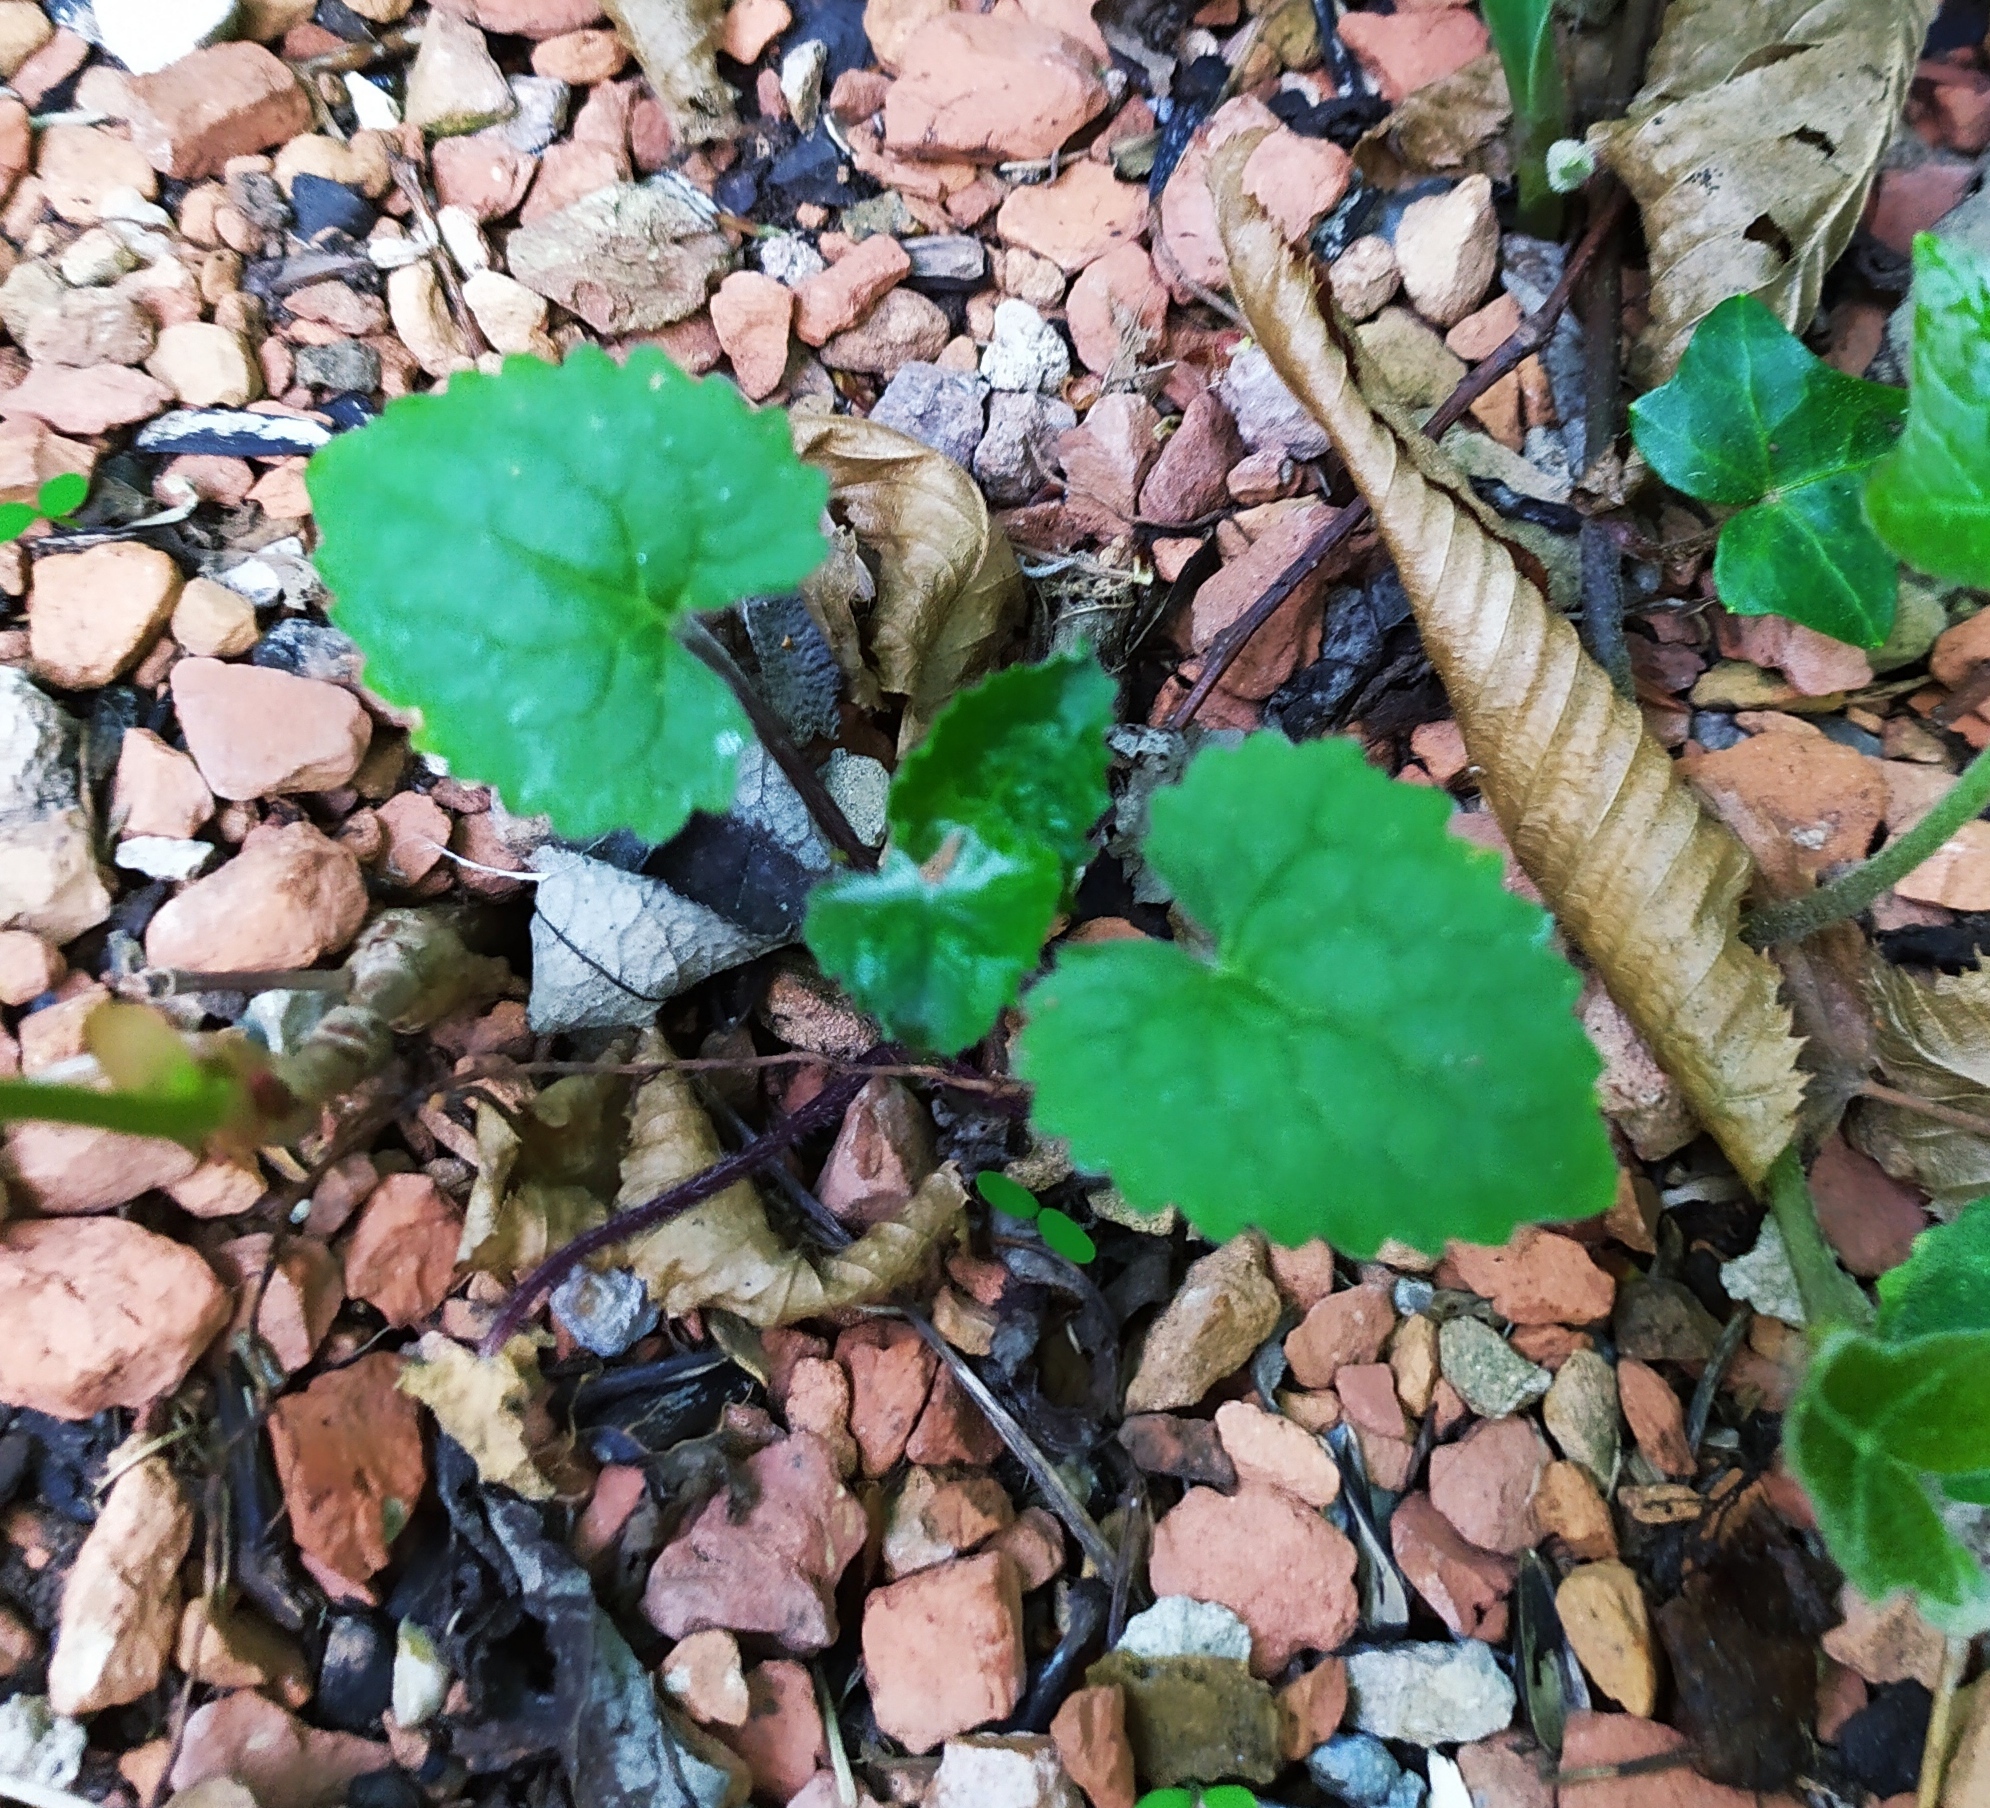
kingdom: Plantae
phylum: Tracheophyta
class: Magnoliopsida
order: Brassicales
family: Brassicaceae
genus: Lunaria
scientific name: Lunaria annua
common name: Honesty
